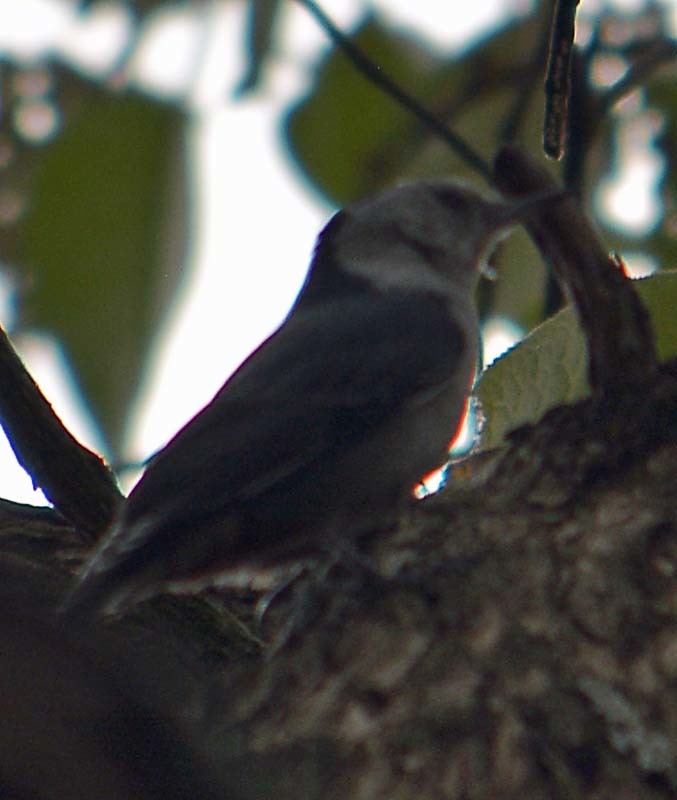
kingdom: Animalia
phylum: Chordata
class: Aves
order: Passeriformes
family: Sittidae
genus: Sitta
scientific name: Sitta carolinensis
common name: White-breasted nuthatch
